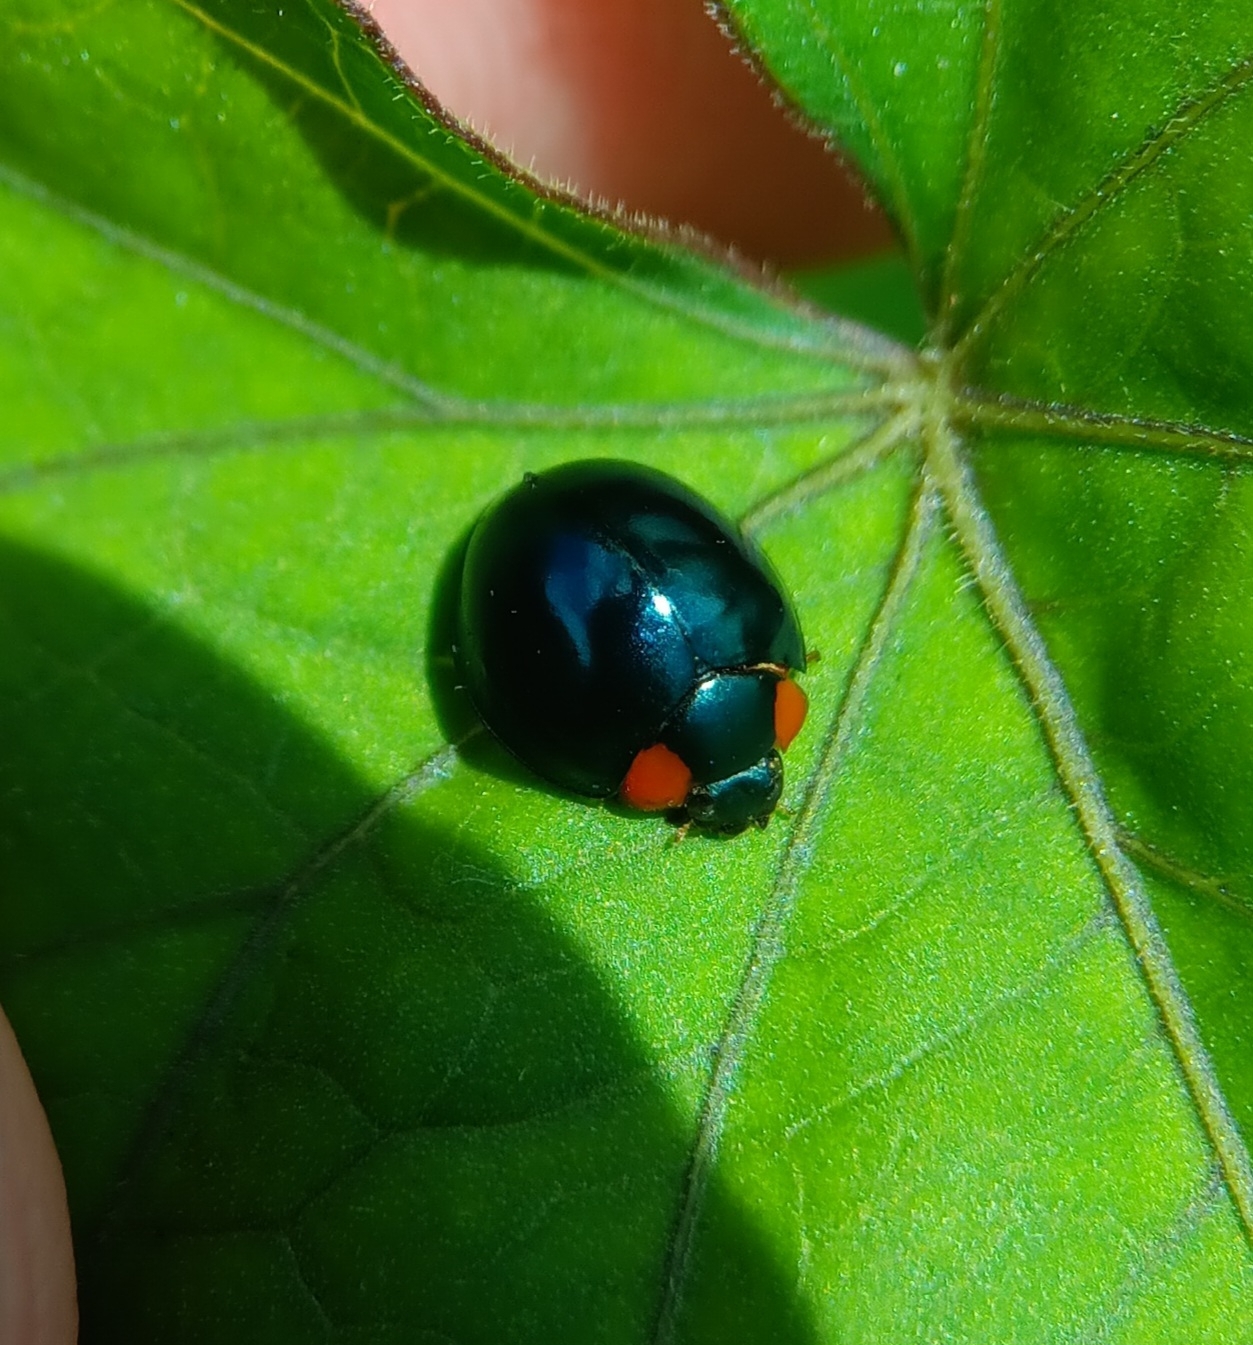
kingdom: Animalia
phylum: Arthropoda
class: Insecta
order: Coleoptera
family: Coccinellidae
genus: Curinus
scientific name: Curinus coeruleus
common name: Ladybird beetle
